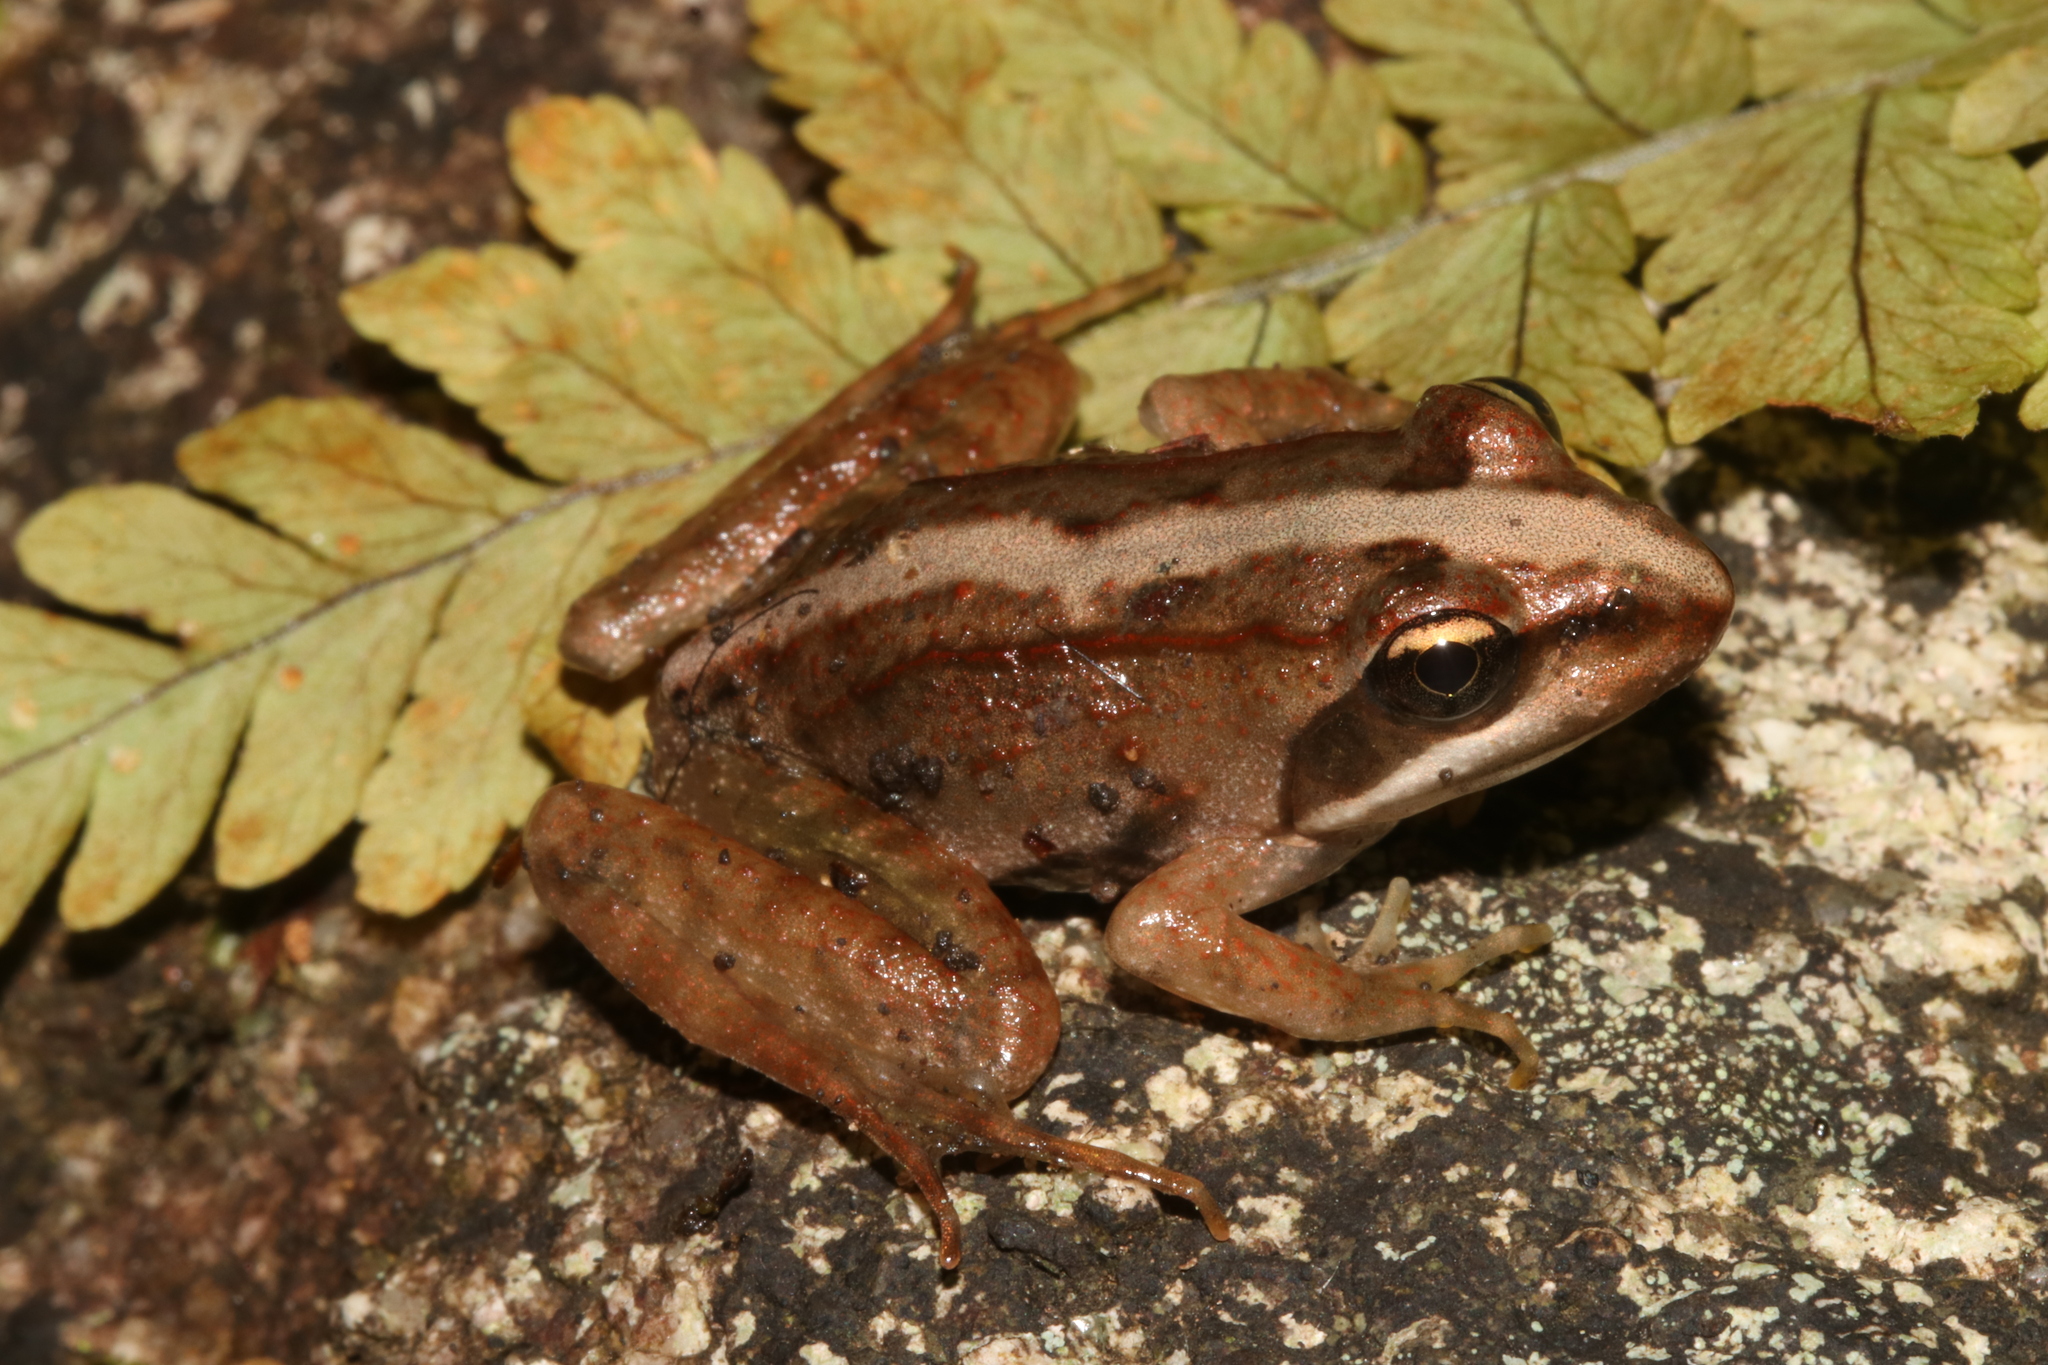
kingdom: Animalia
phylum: Chordata
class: Amphibia
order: Anura
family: Pyxicephalidae
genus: Amietia
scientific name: Amietia tenuoplicata
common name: River frog
